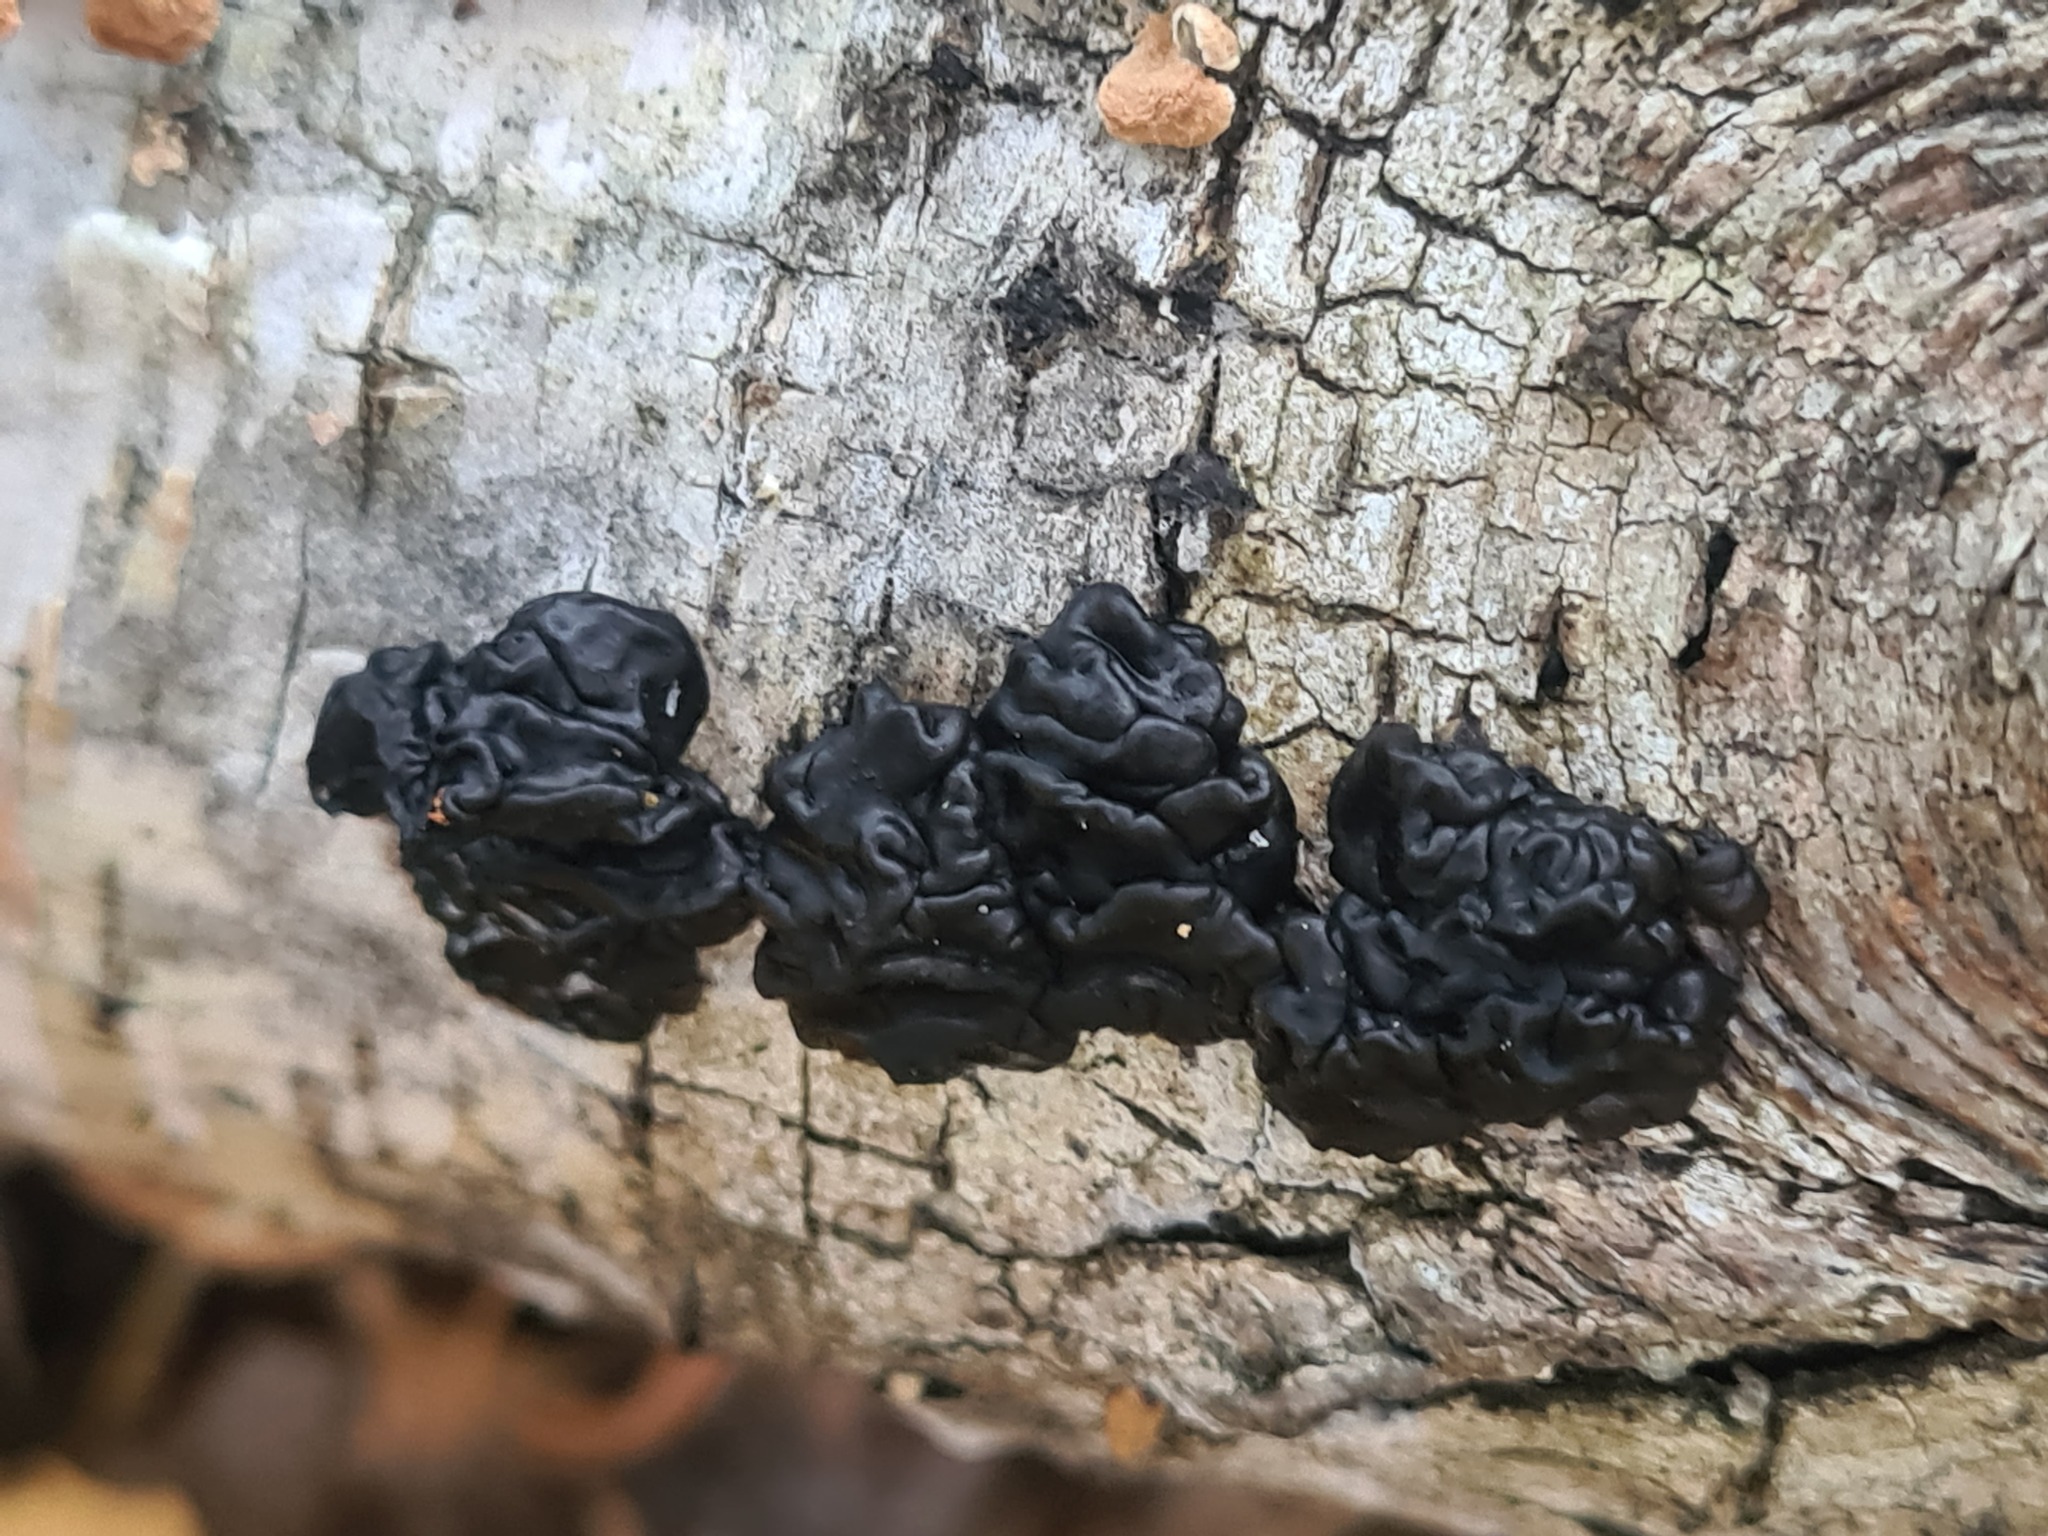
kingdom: Fungi
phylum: Basidiomycota
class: Agaricomycetes
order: Auriculariales
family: Auriculariaceae
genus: Exidia
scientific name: Exidia glandulosa
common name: Witches' butter
